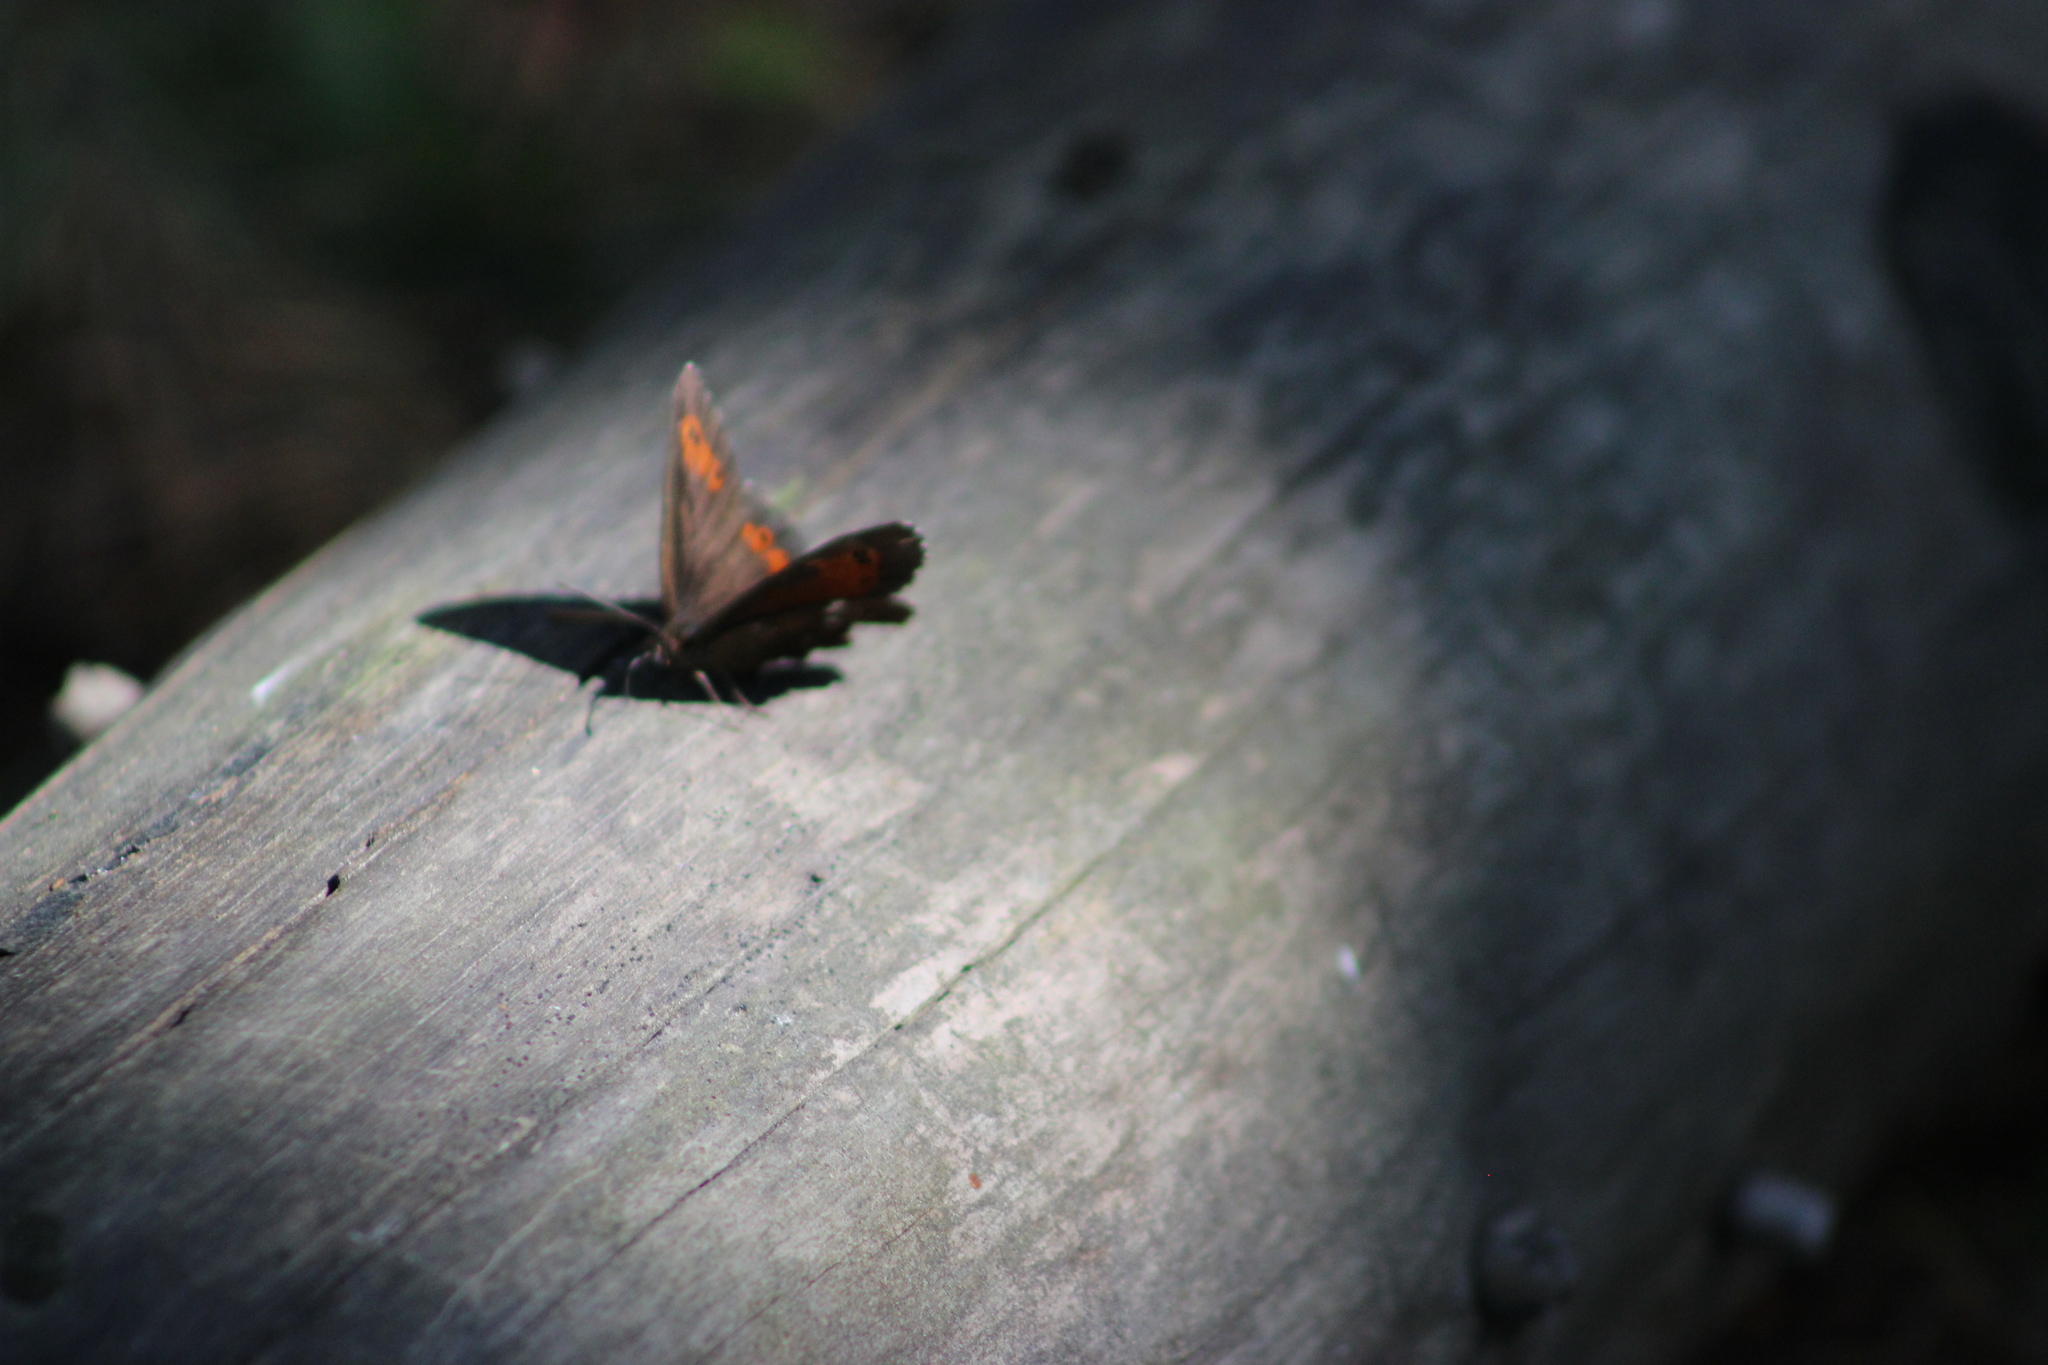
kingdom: Animalia
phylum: Arthropoda
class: Insecta
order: Lepidoptera
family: Nymphalidae
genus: Erebia
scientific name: Erebia ligea
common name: Arran brown
